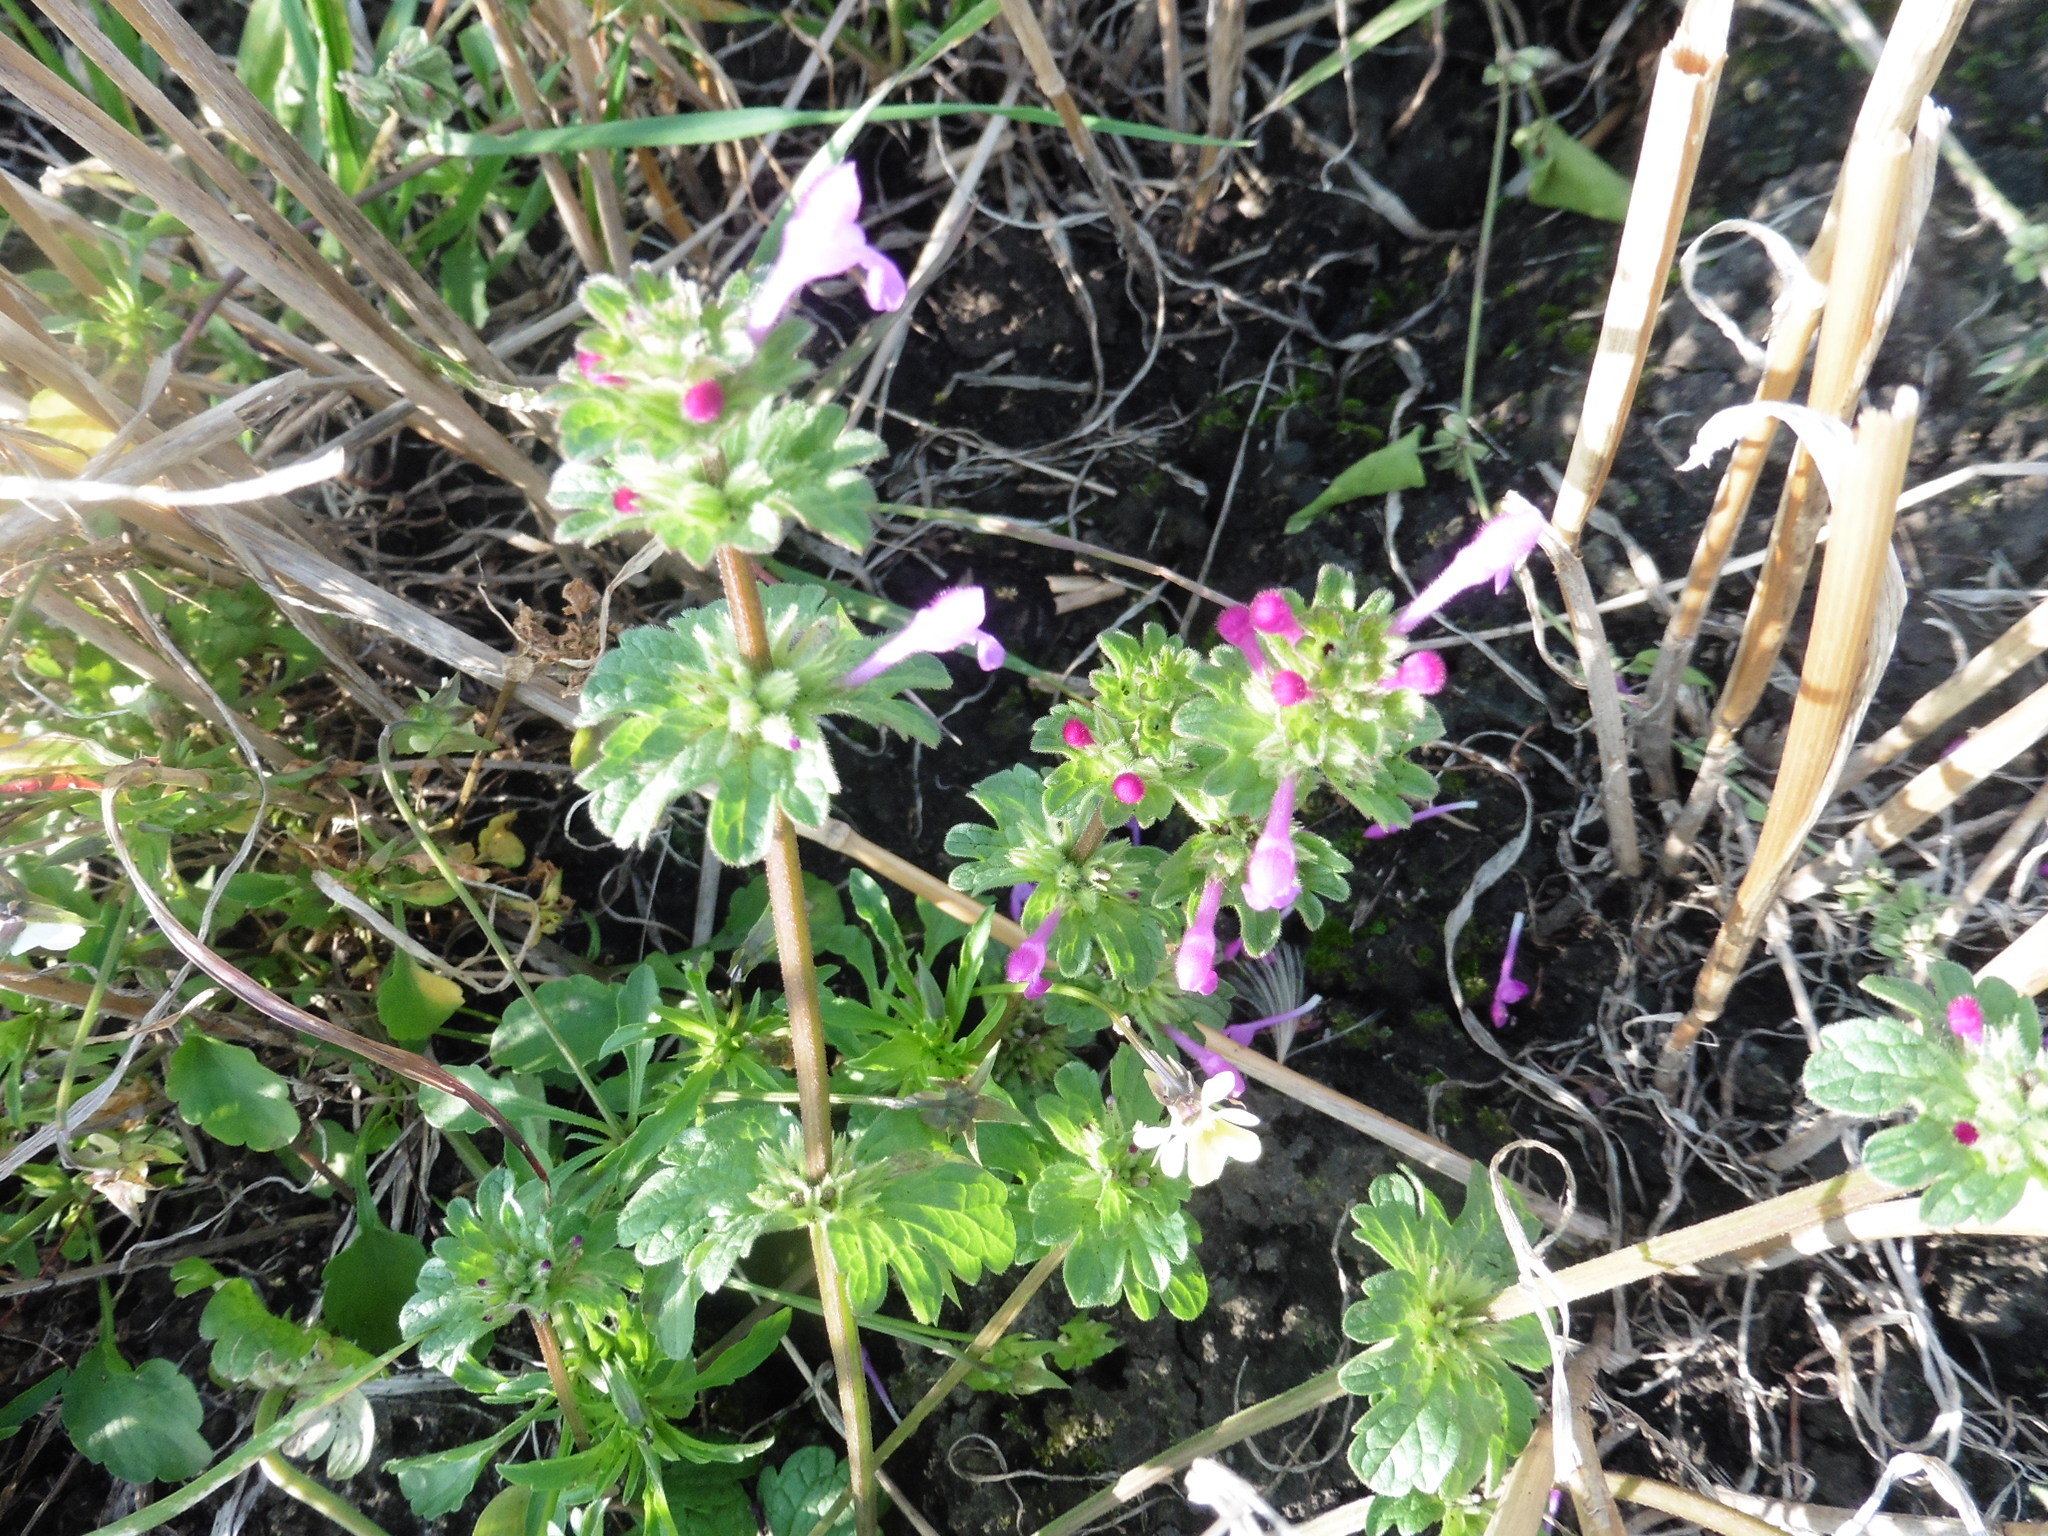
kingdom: Plantae
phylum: Tracheophyta
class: Magnoliopsida
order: Lamiales
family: Lamiaceae
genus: Lamium
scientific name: Lamium amplexicaule
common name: Henbit dead-nettle
